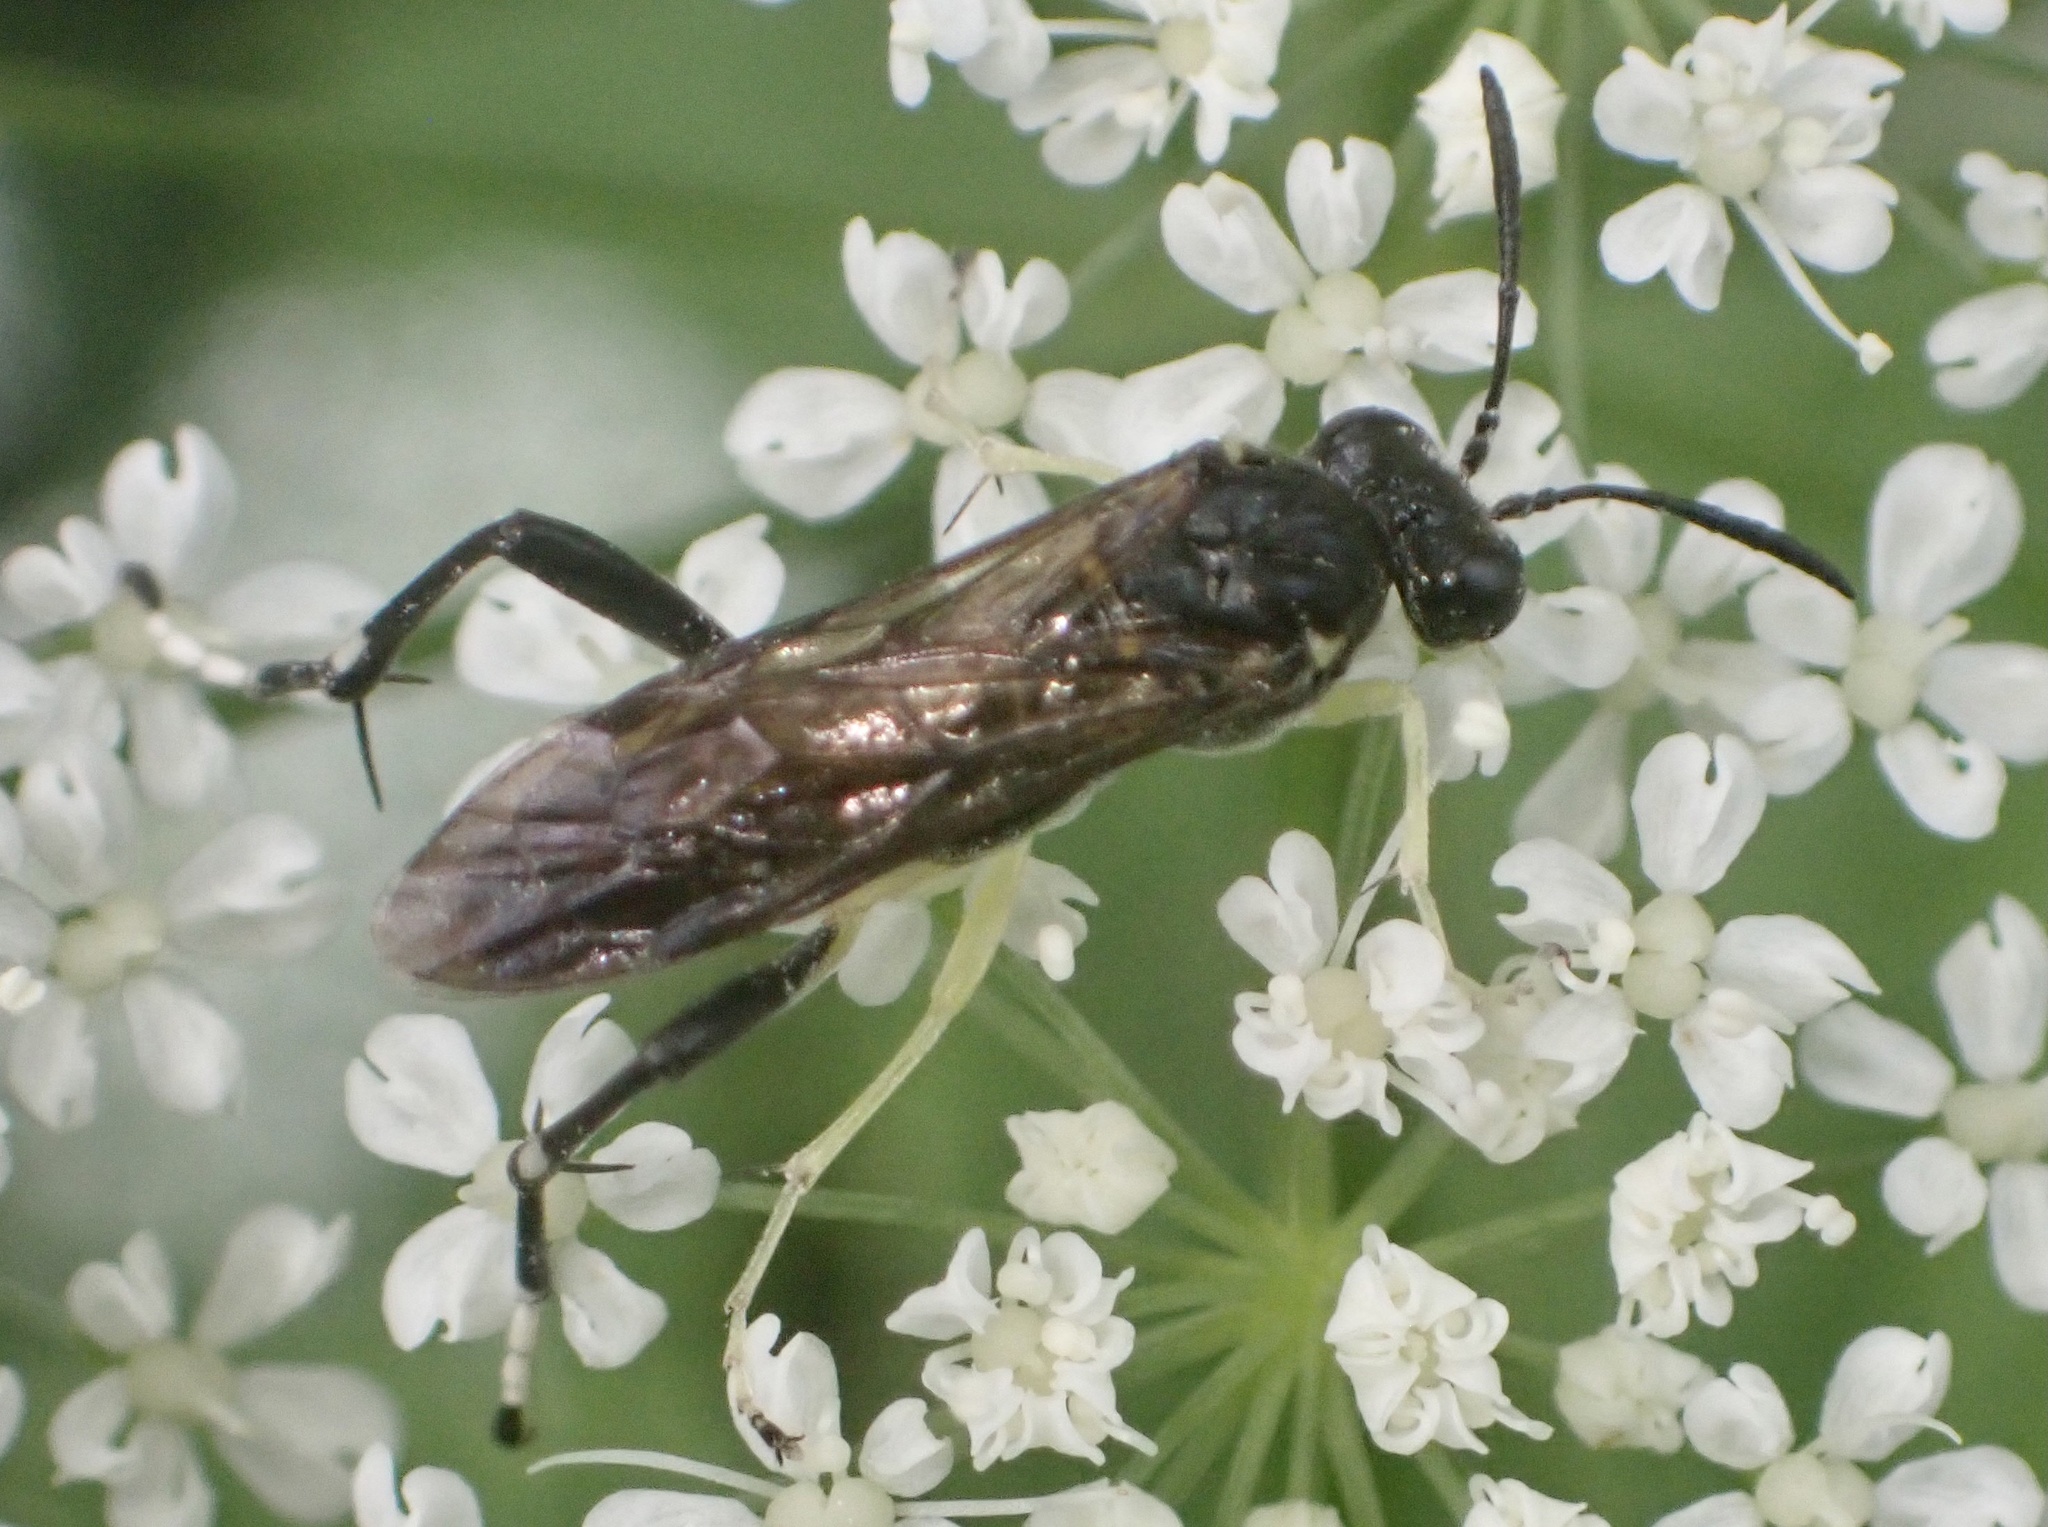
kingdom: Animalia
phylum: Arthropoda
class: Insecta
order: Hymenoptera
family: Tenthredinidae
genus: Macrophya
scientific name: Macrophya montana
